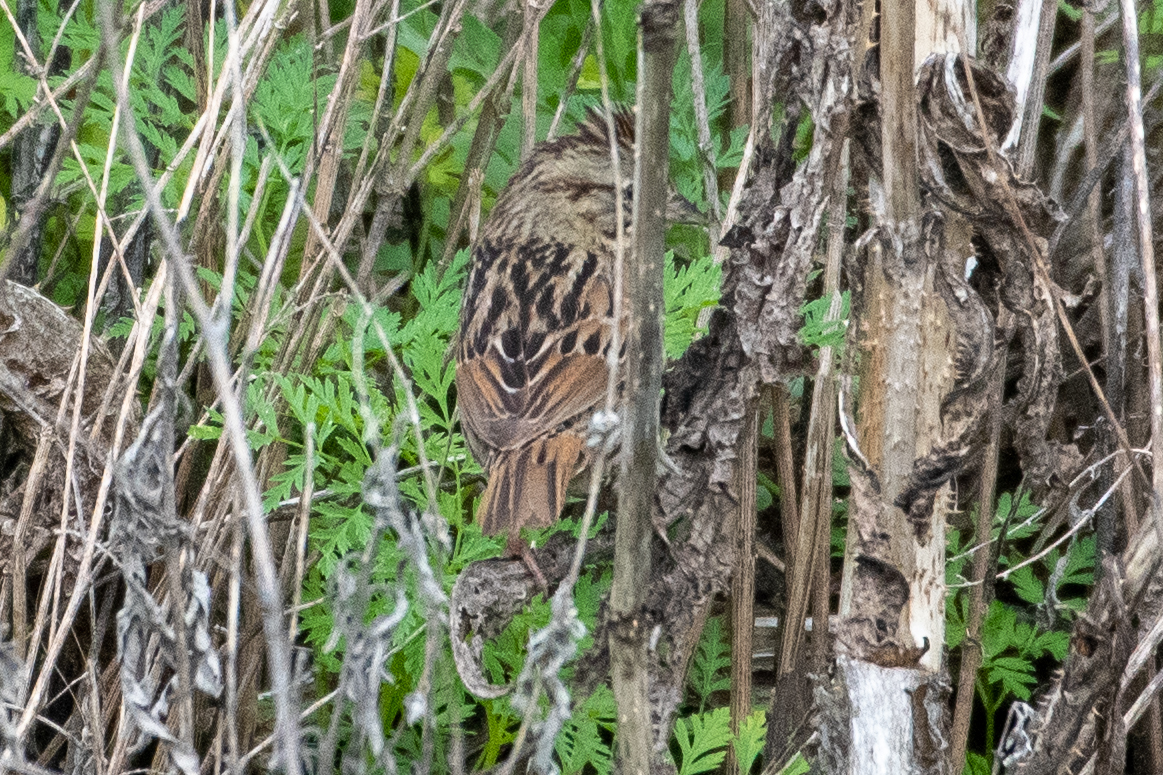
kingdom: Animalia
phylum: Chordata
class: Aves
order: Passeriformes
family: Passerellidae
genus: Melospiza
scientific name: Melospiza lincolnii
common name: Lincoln's sparrow
